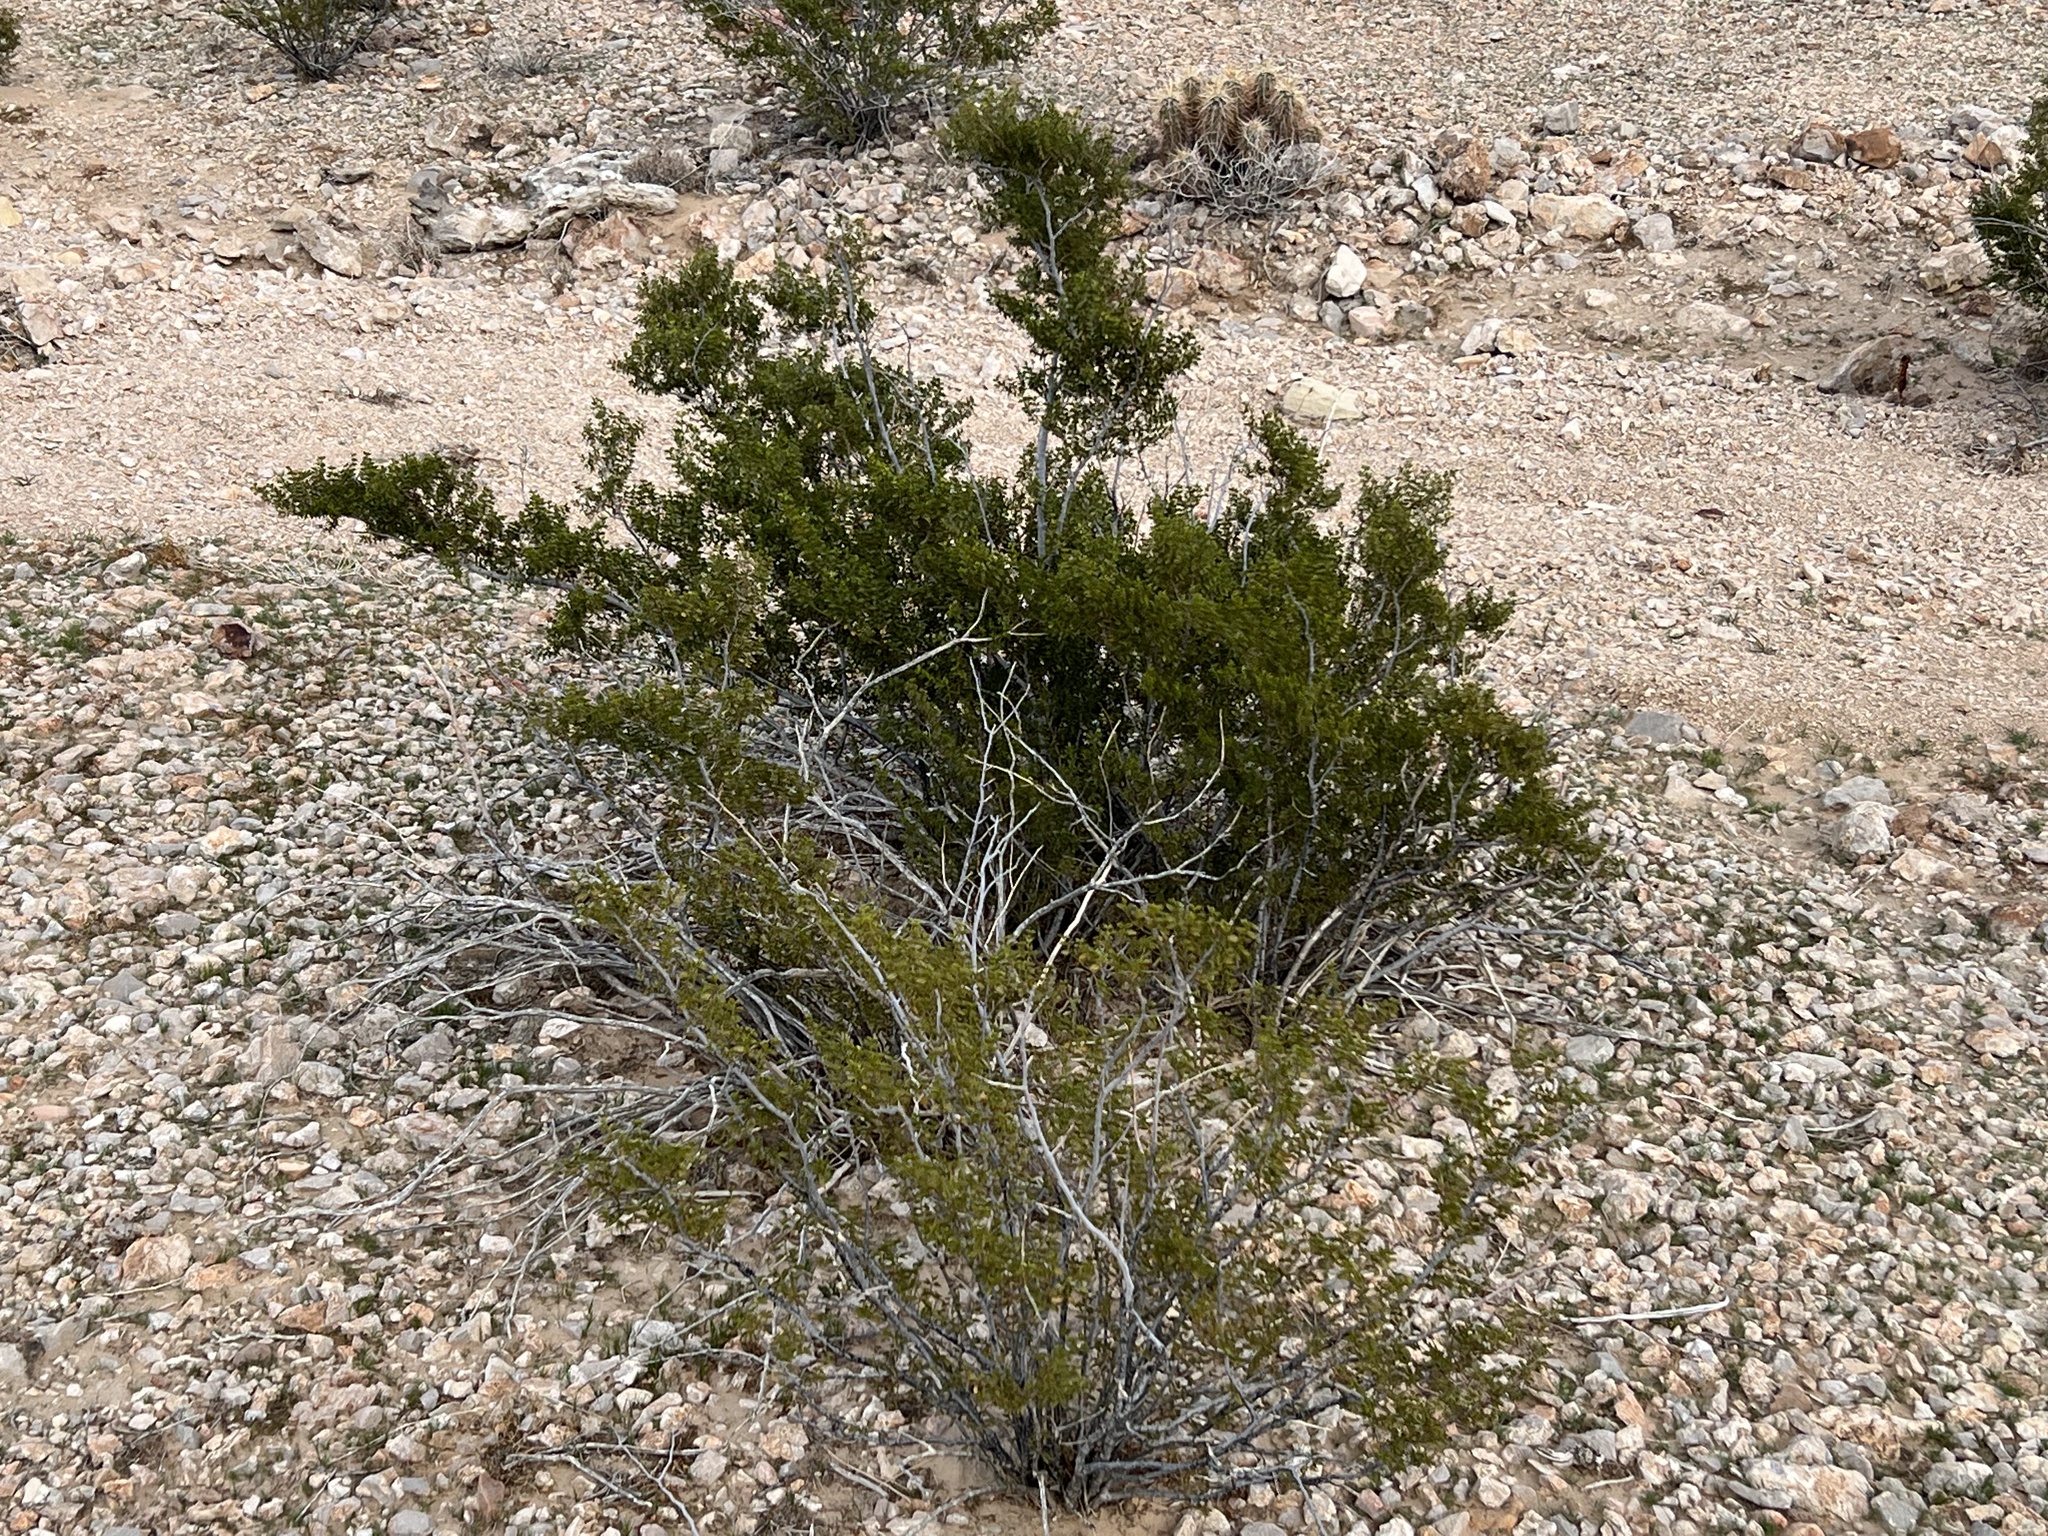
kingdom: Plantae
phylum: Tracheophyta
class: Magnoliopsida
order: Zygophyllales
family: Zygophyllaceae
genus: Larrea
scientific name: Larrea tridentata
